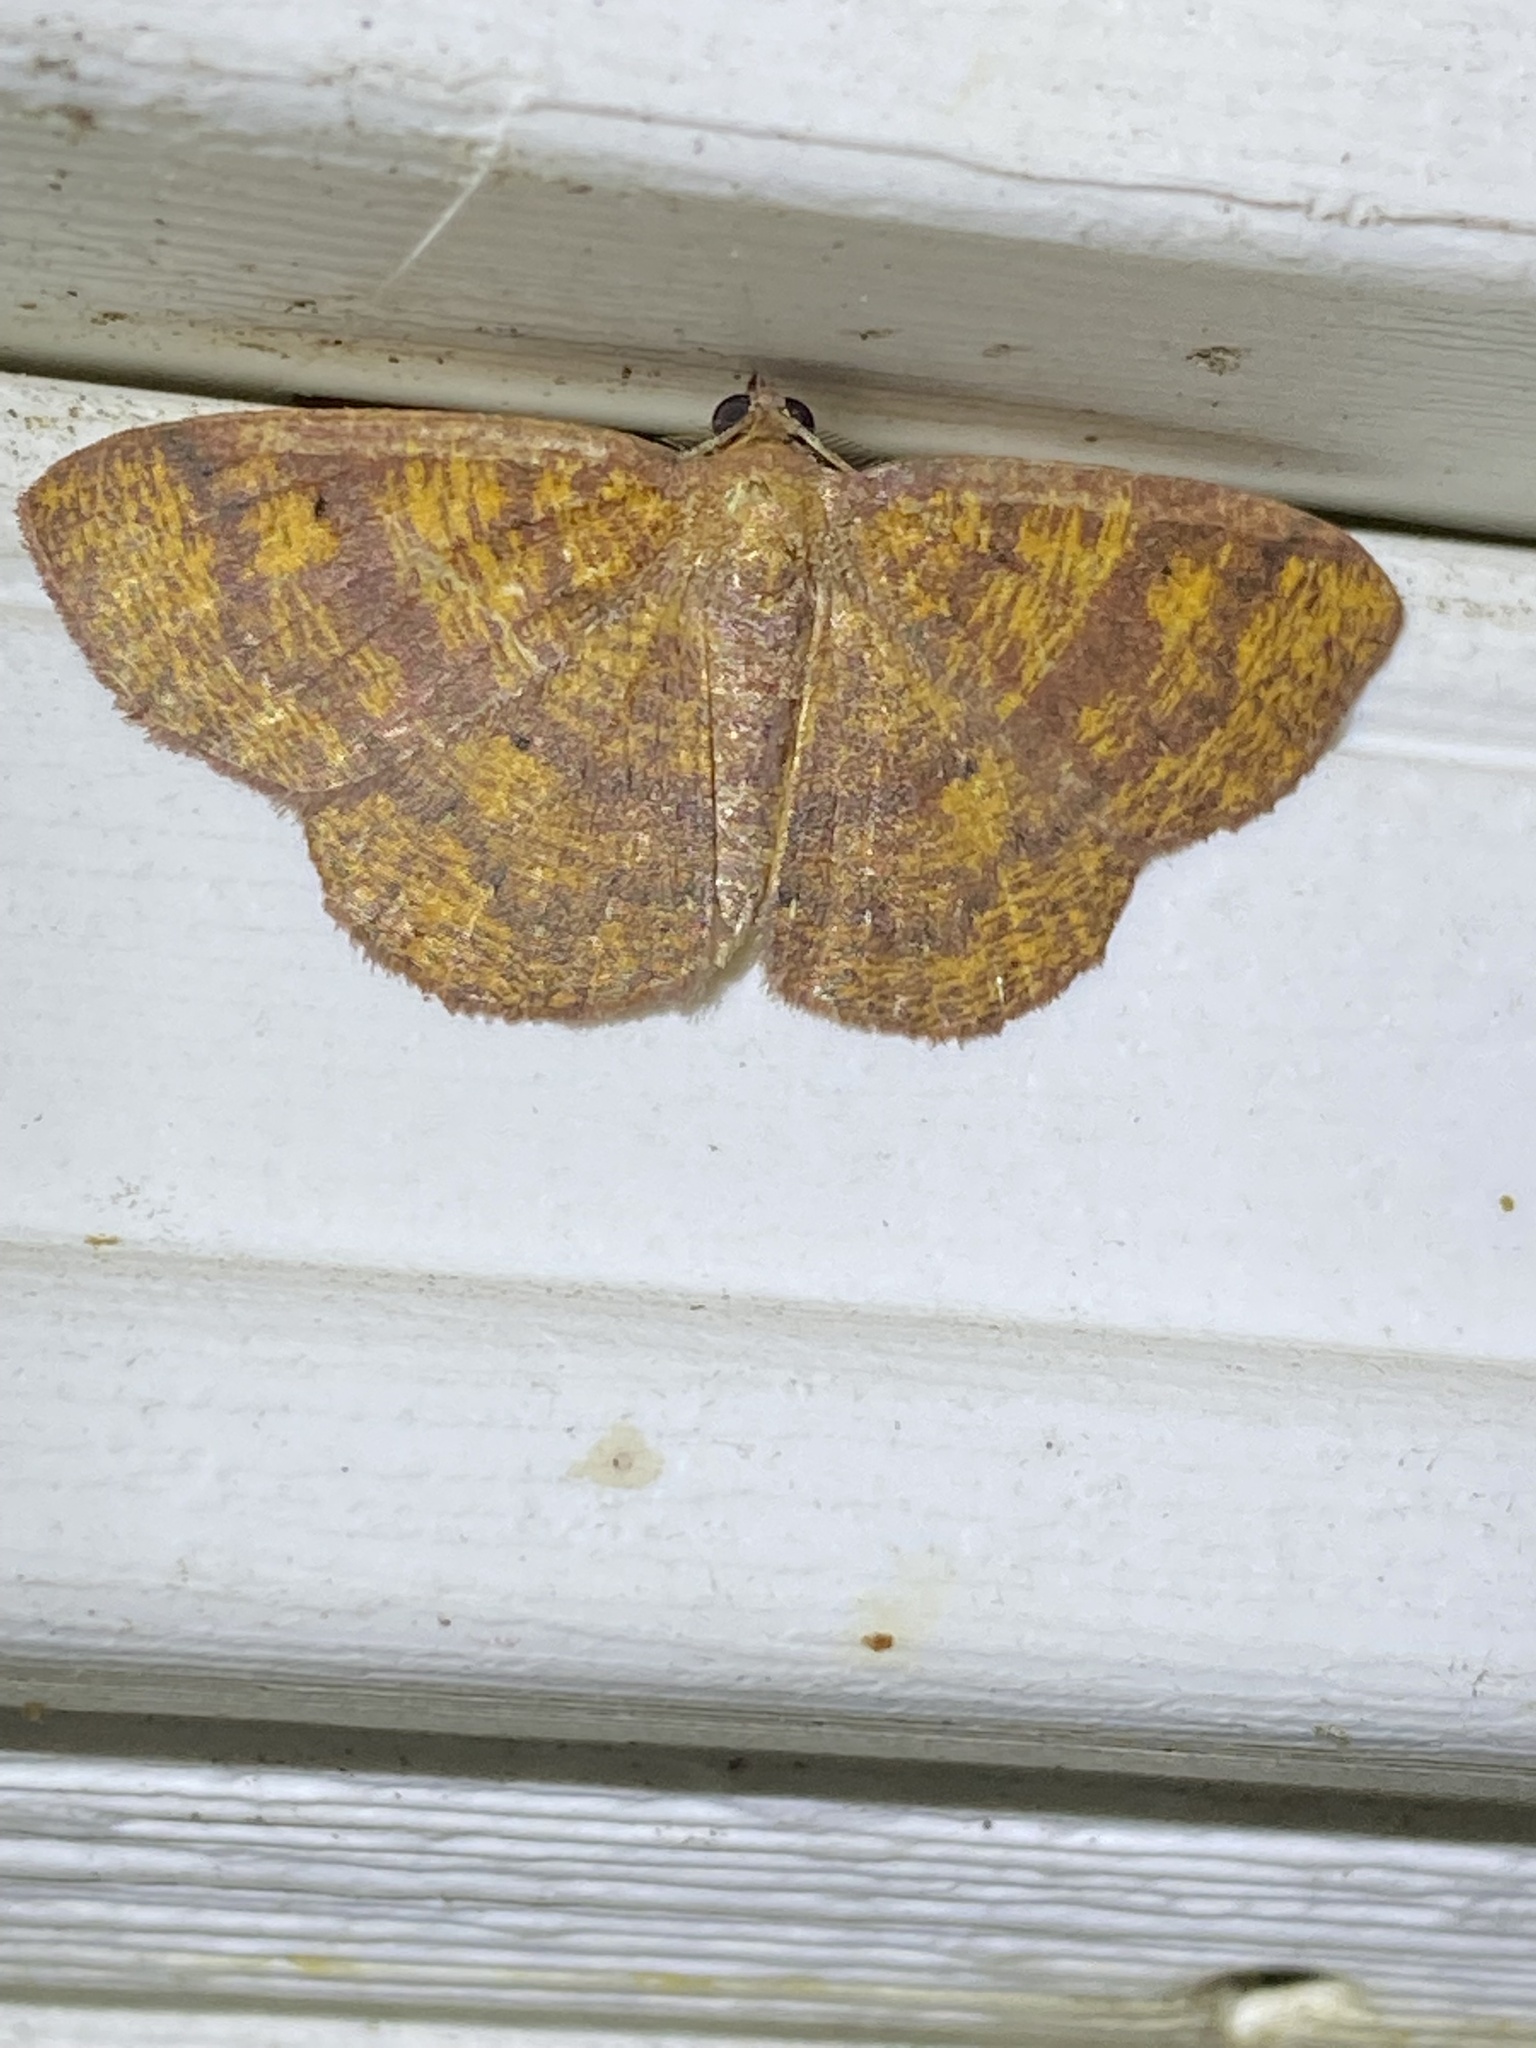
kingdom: Animalia
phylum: Arthropoda
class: Insecta
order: Lepidoptera
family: Geometridae
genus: Ilexia
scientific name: Ilexia intractata
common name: Black-dotted ruddy moth
